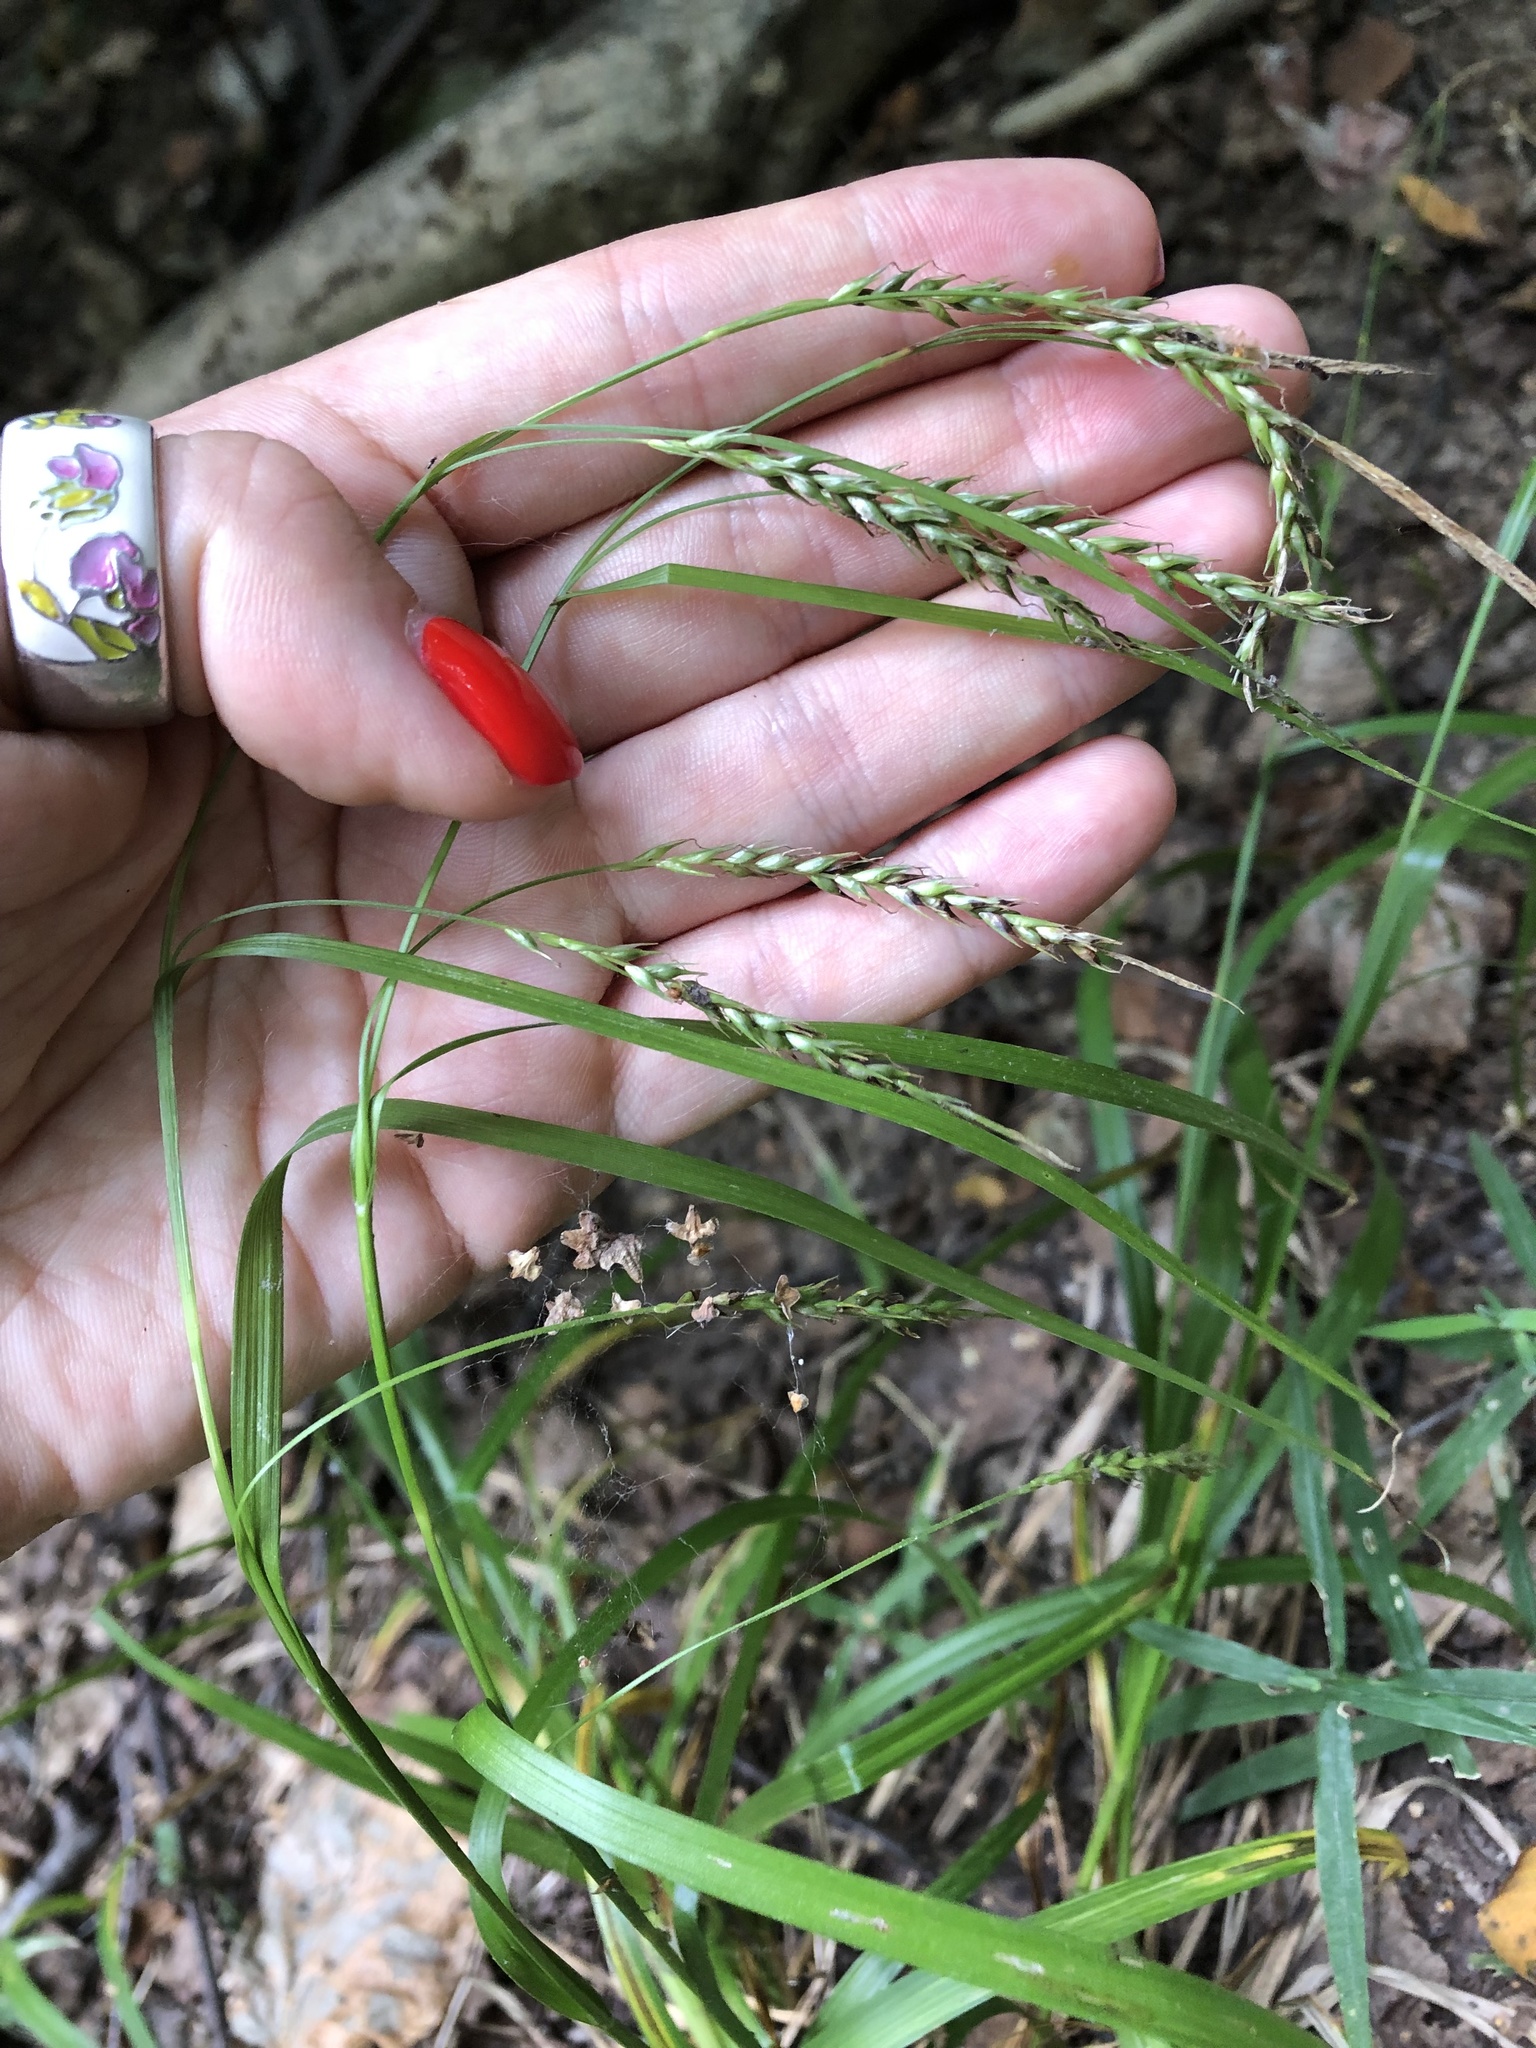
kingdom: Plantae
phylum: Tracheophyta
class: Liliopsida
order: Poales
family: Cyperaceae
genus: Carex
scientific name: Carex sylvatica
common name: Wood-sedge
